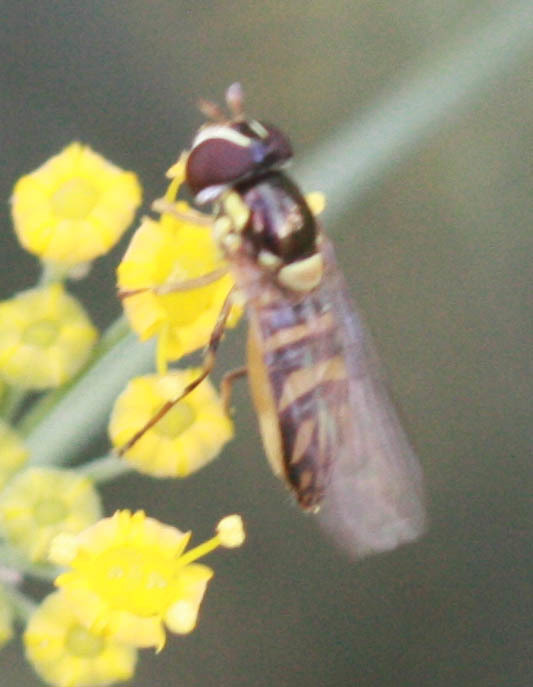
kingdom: Animalia
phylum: Arthropoda
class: Insecta
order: Diptera
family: Syrphidae
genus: Allograpta
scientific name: Allograpta
